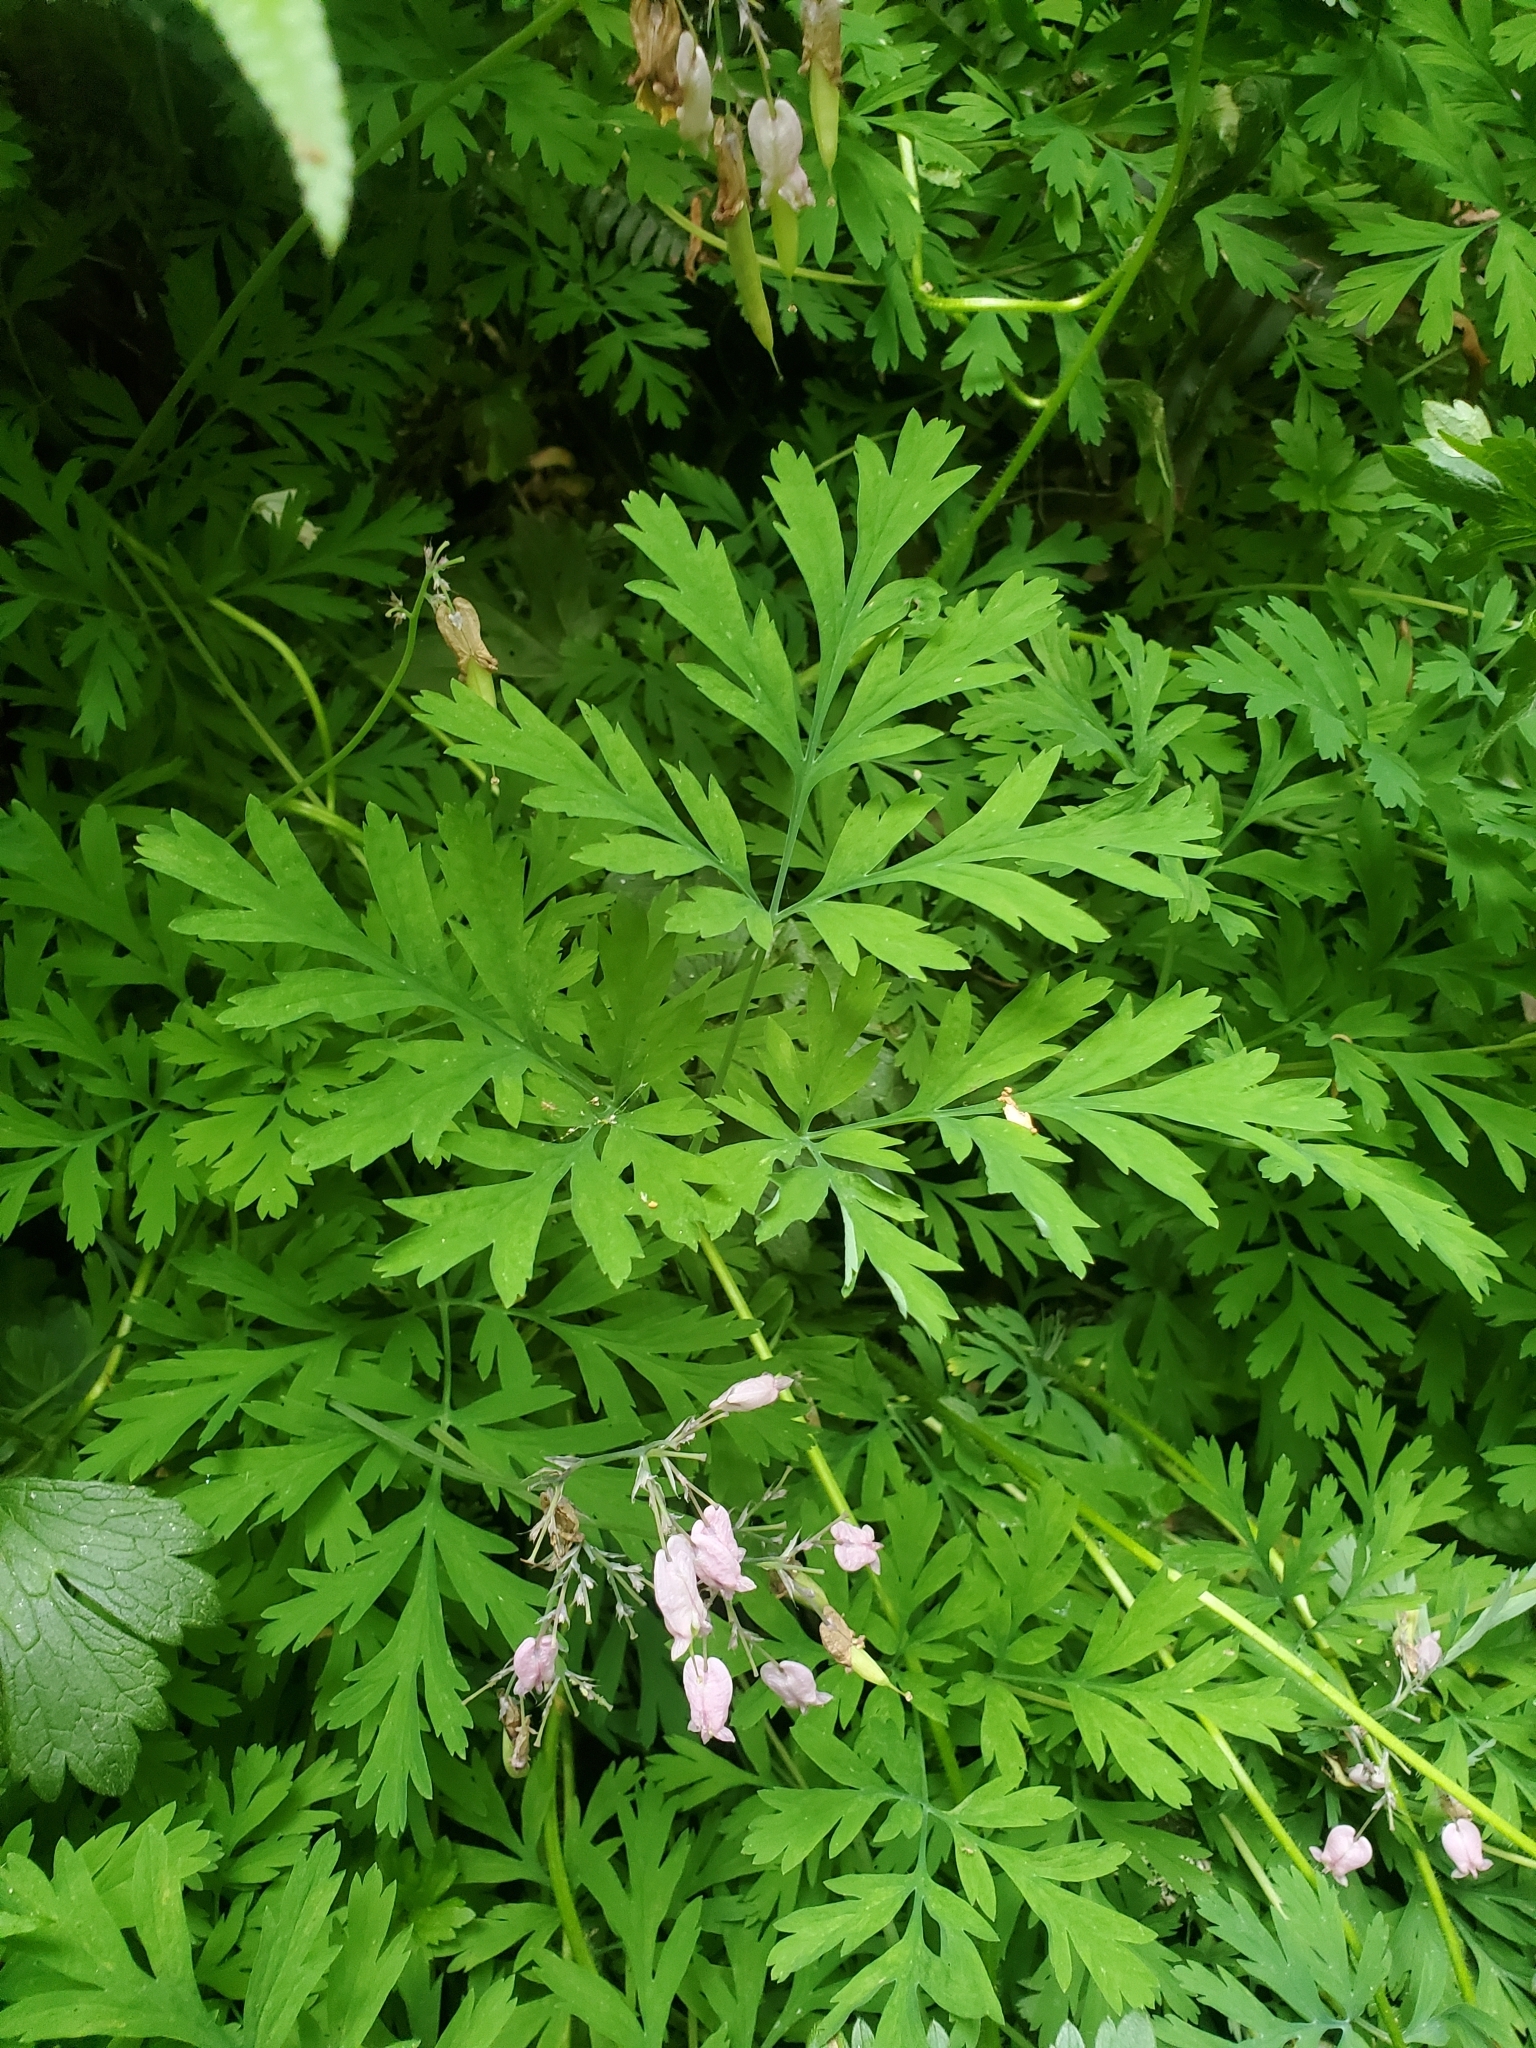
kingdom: Plantae
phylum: Tracheophyta
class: Magnoliopsida
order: Ranunculales
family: Papaveraceae
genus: Dicentra
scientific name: Dicentra formosa
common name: Bleeding-heart
